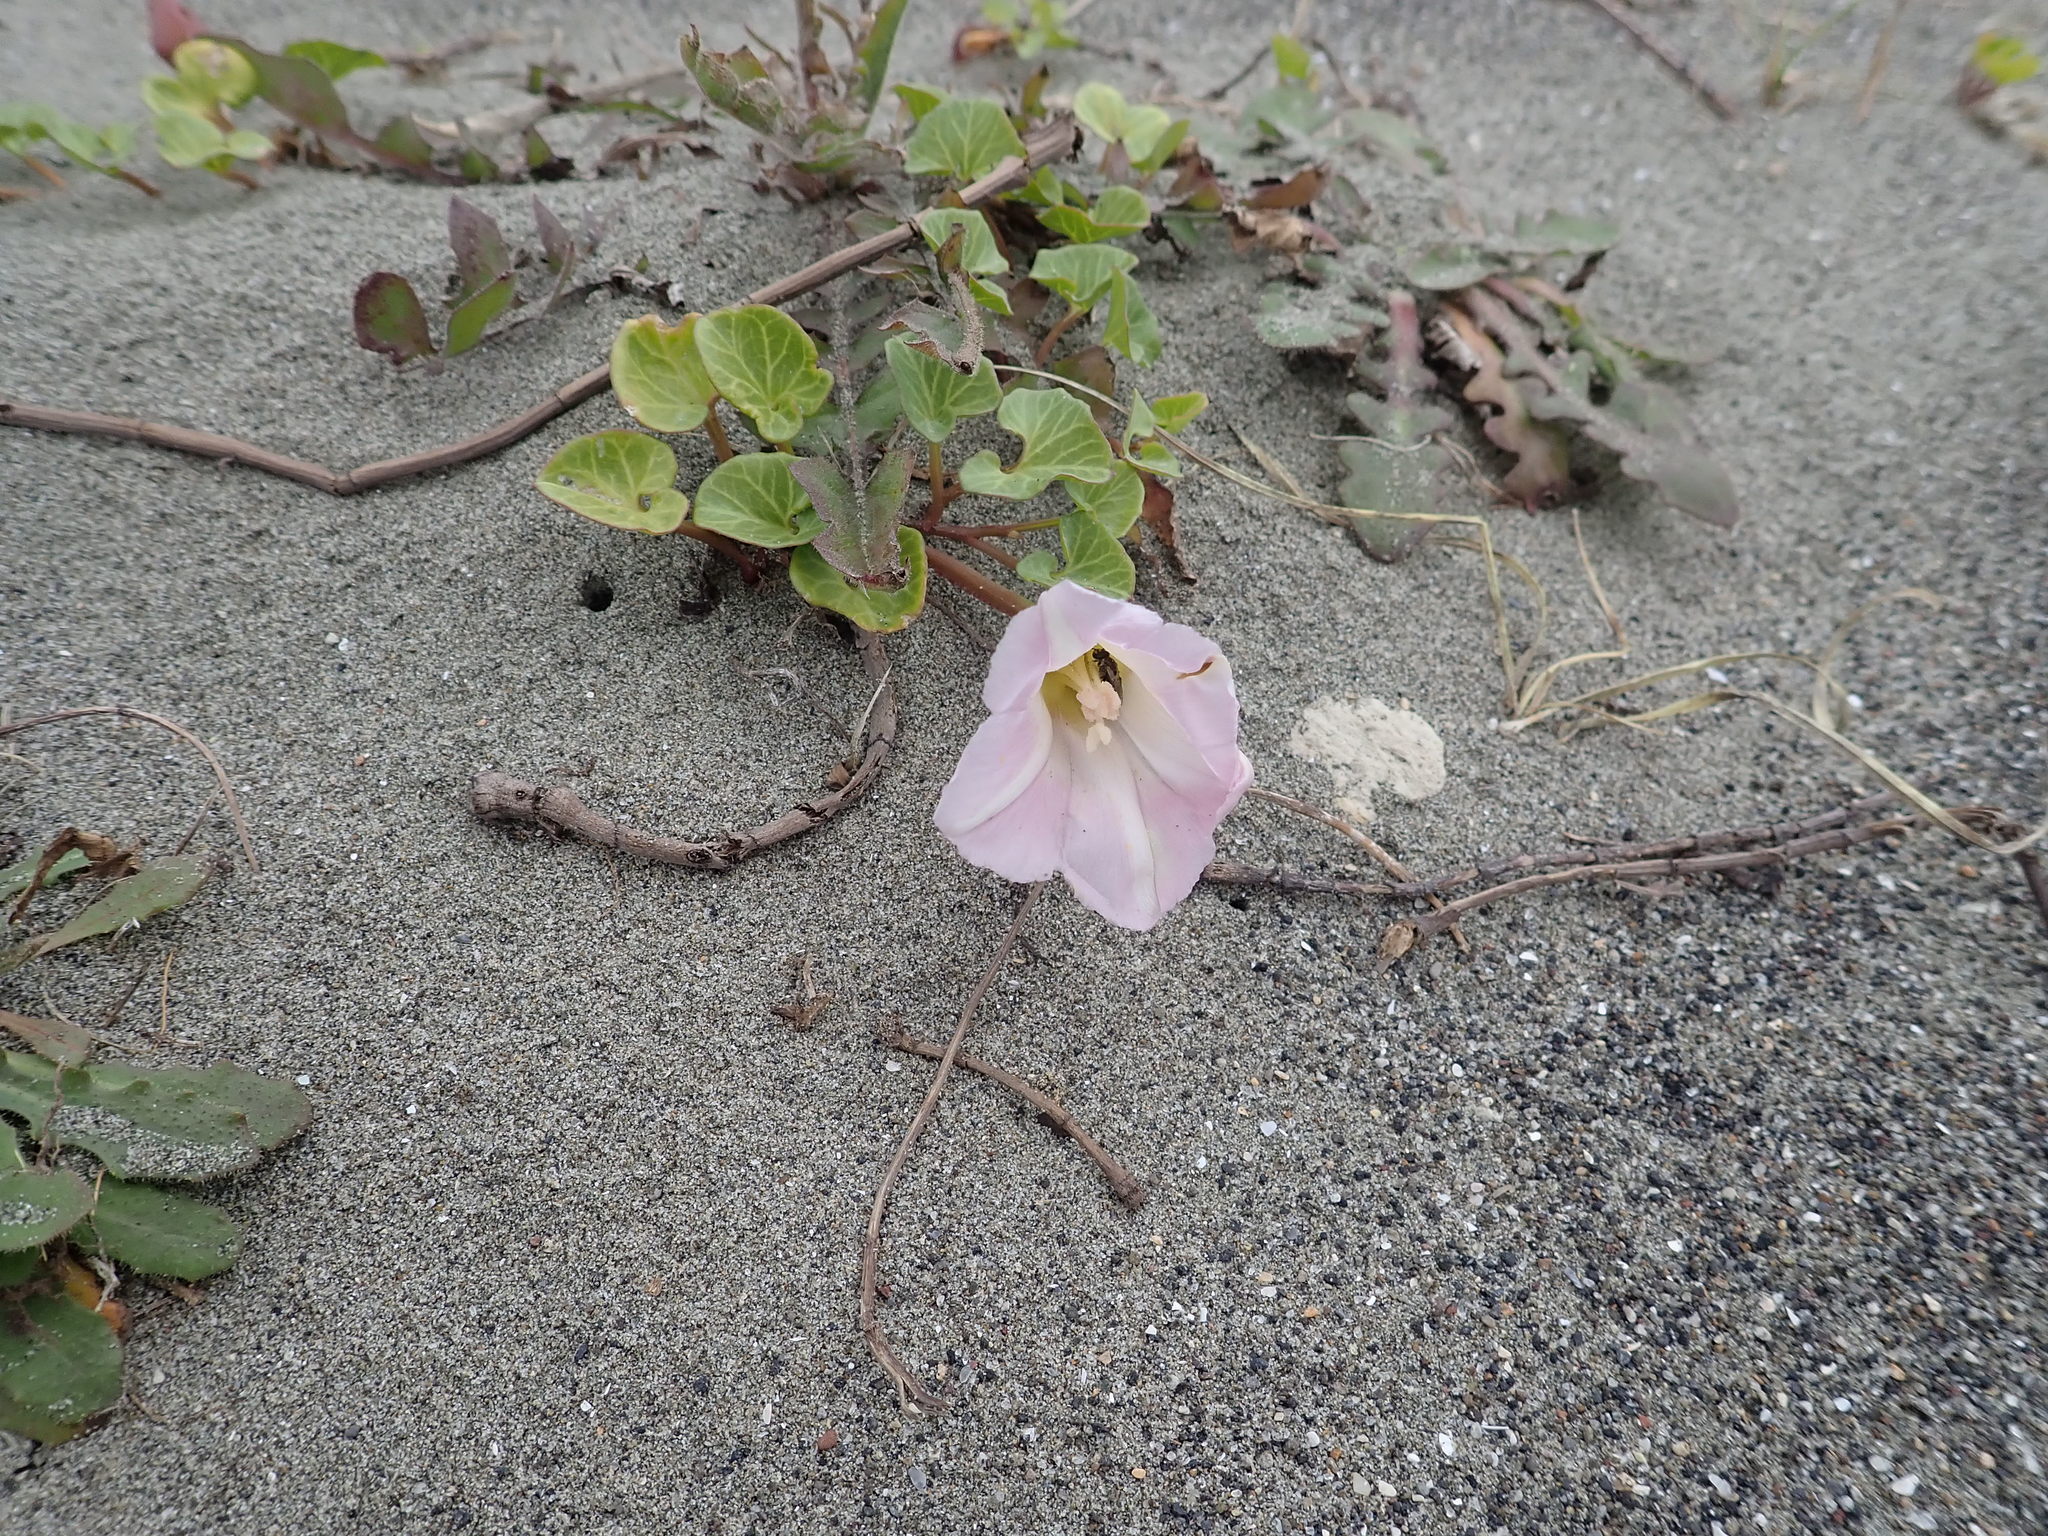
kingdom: Plantae
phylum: Tracheophyta
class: Magnoliopsida
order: Solanales
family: Convolvulaceae
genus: Calystegia
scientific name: Calystegia soldanella
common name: Sea bindweed
